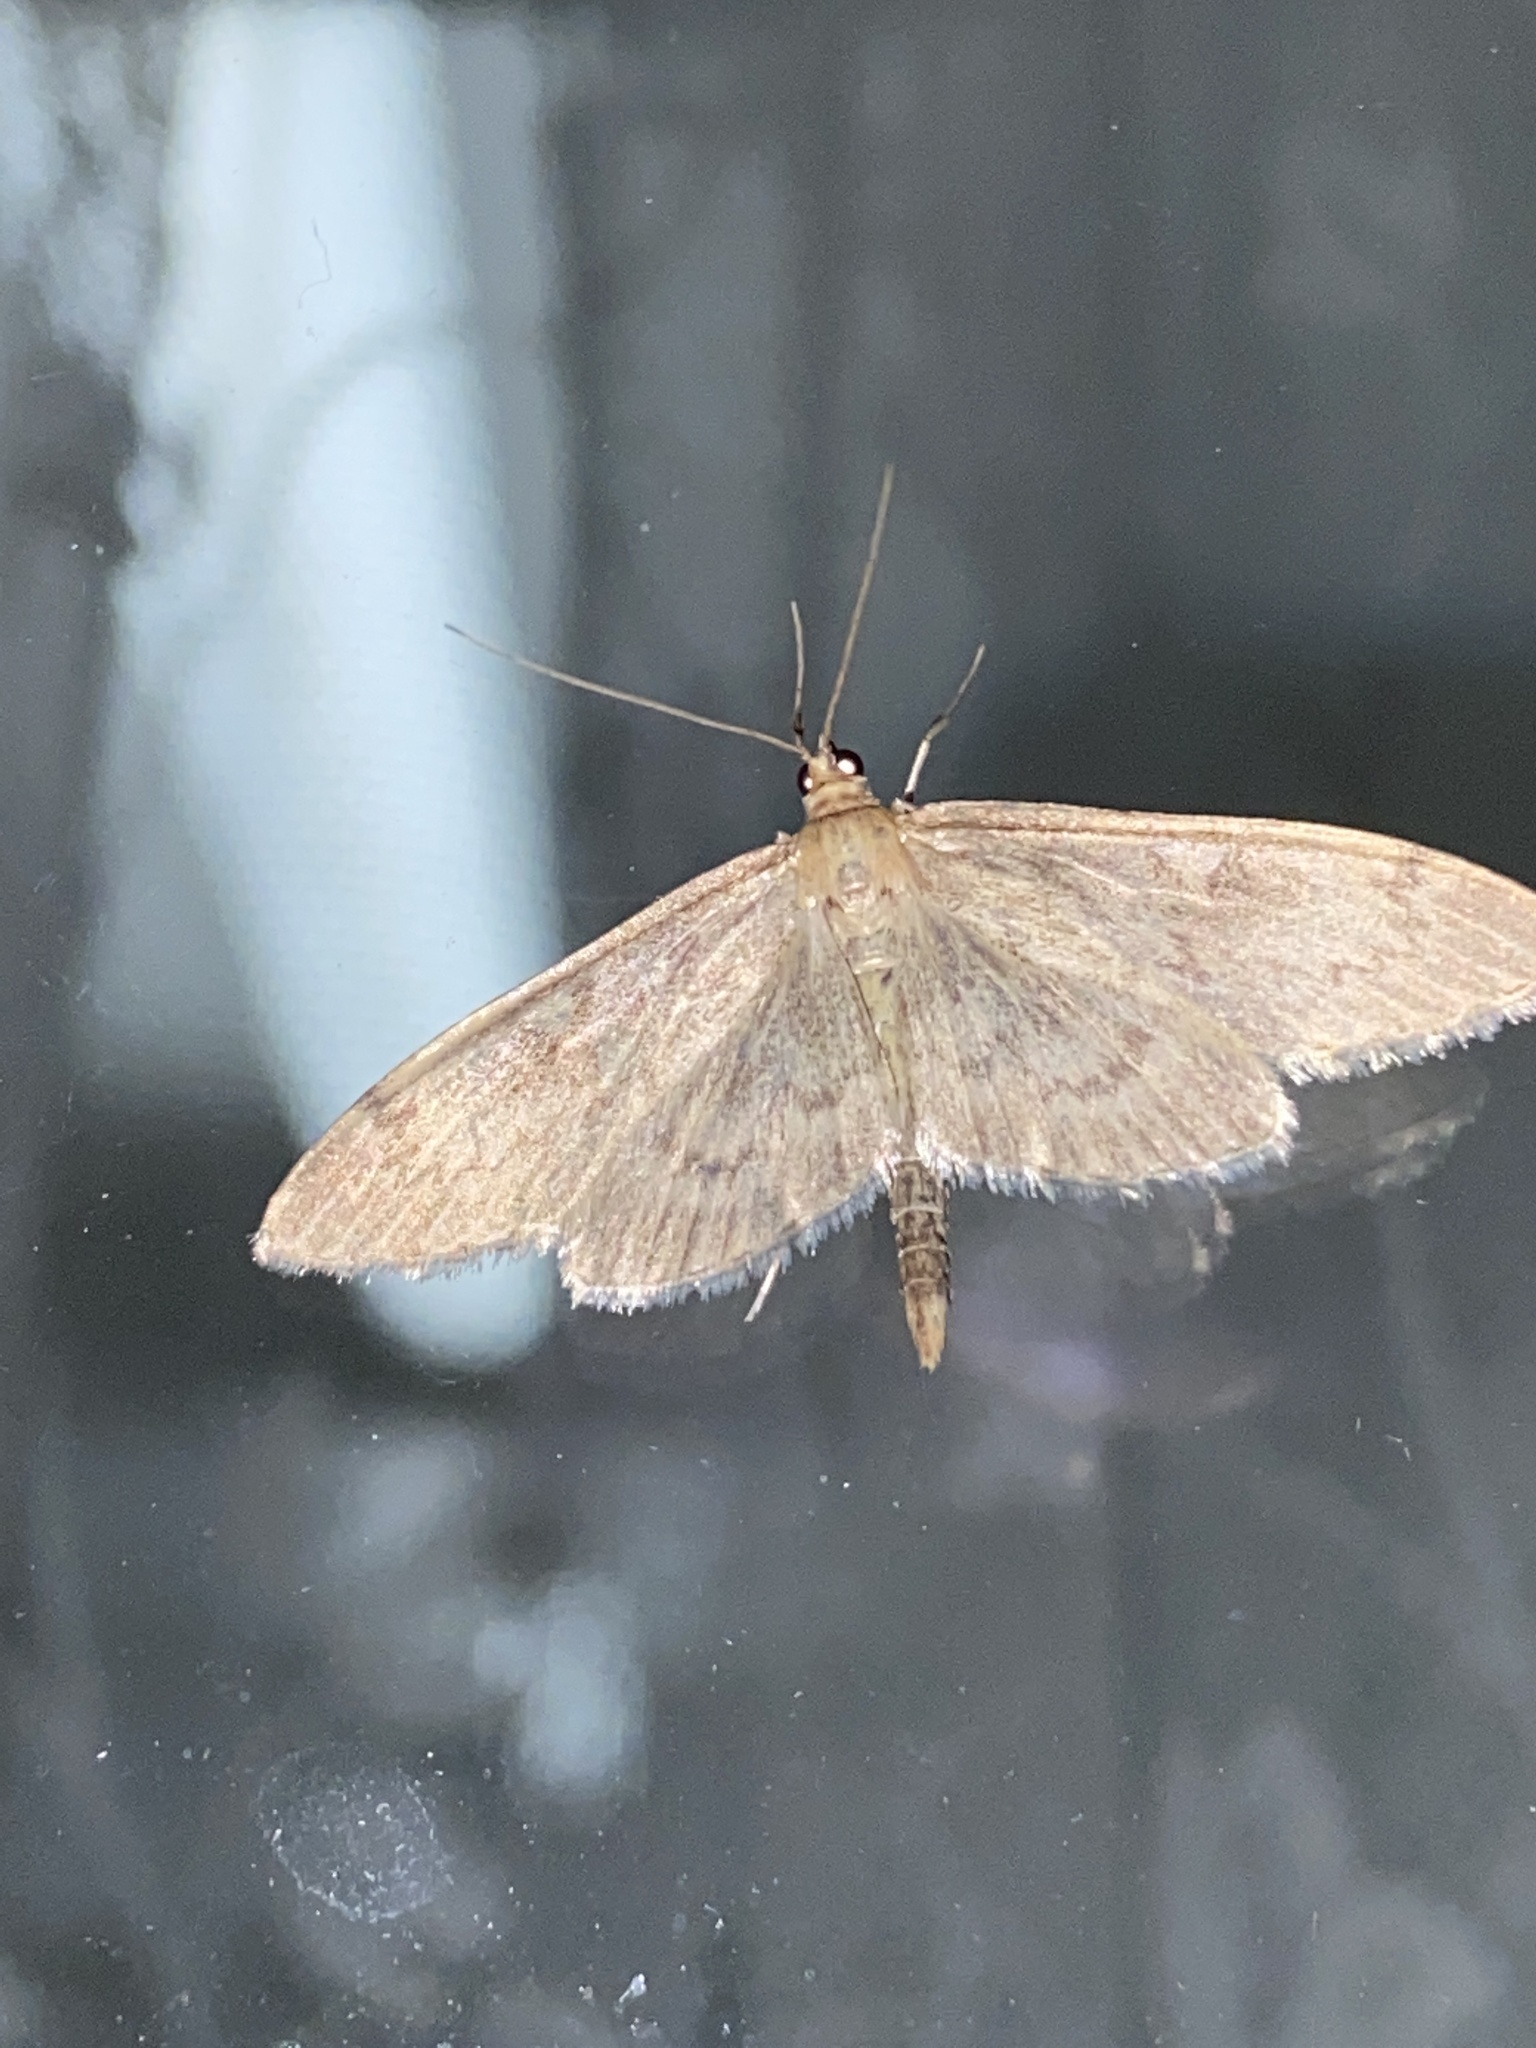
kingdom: Animalia
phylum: Arthropoda
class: Insecta
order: Lepidoptera
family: Crambidae
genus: Anania
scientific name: Anania lancealis
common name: Long-winged pearl
